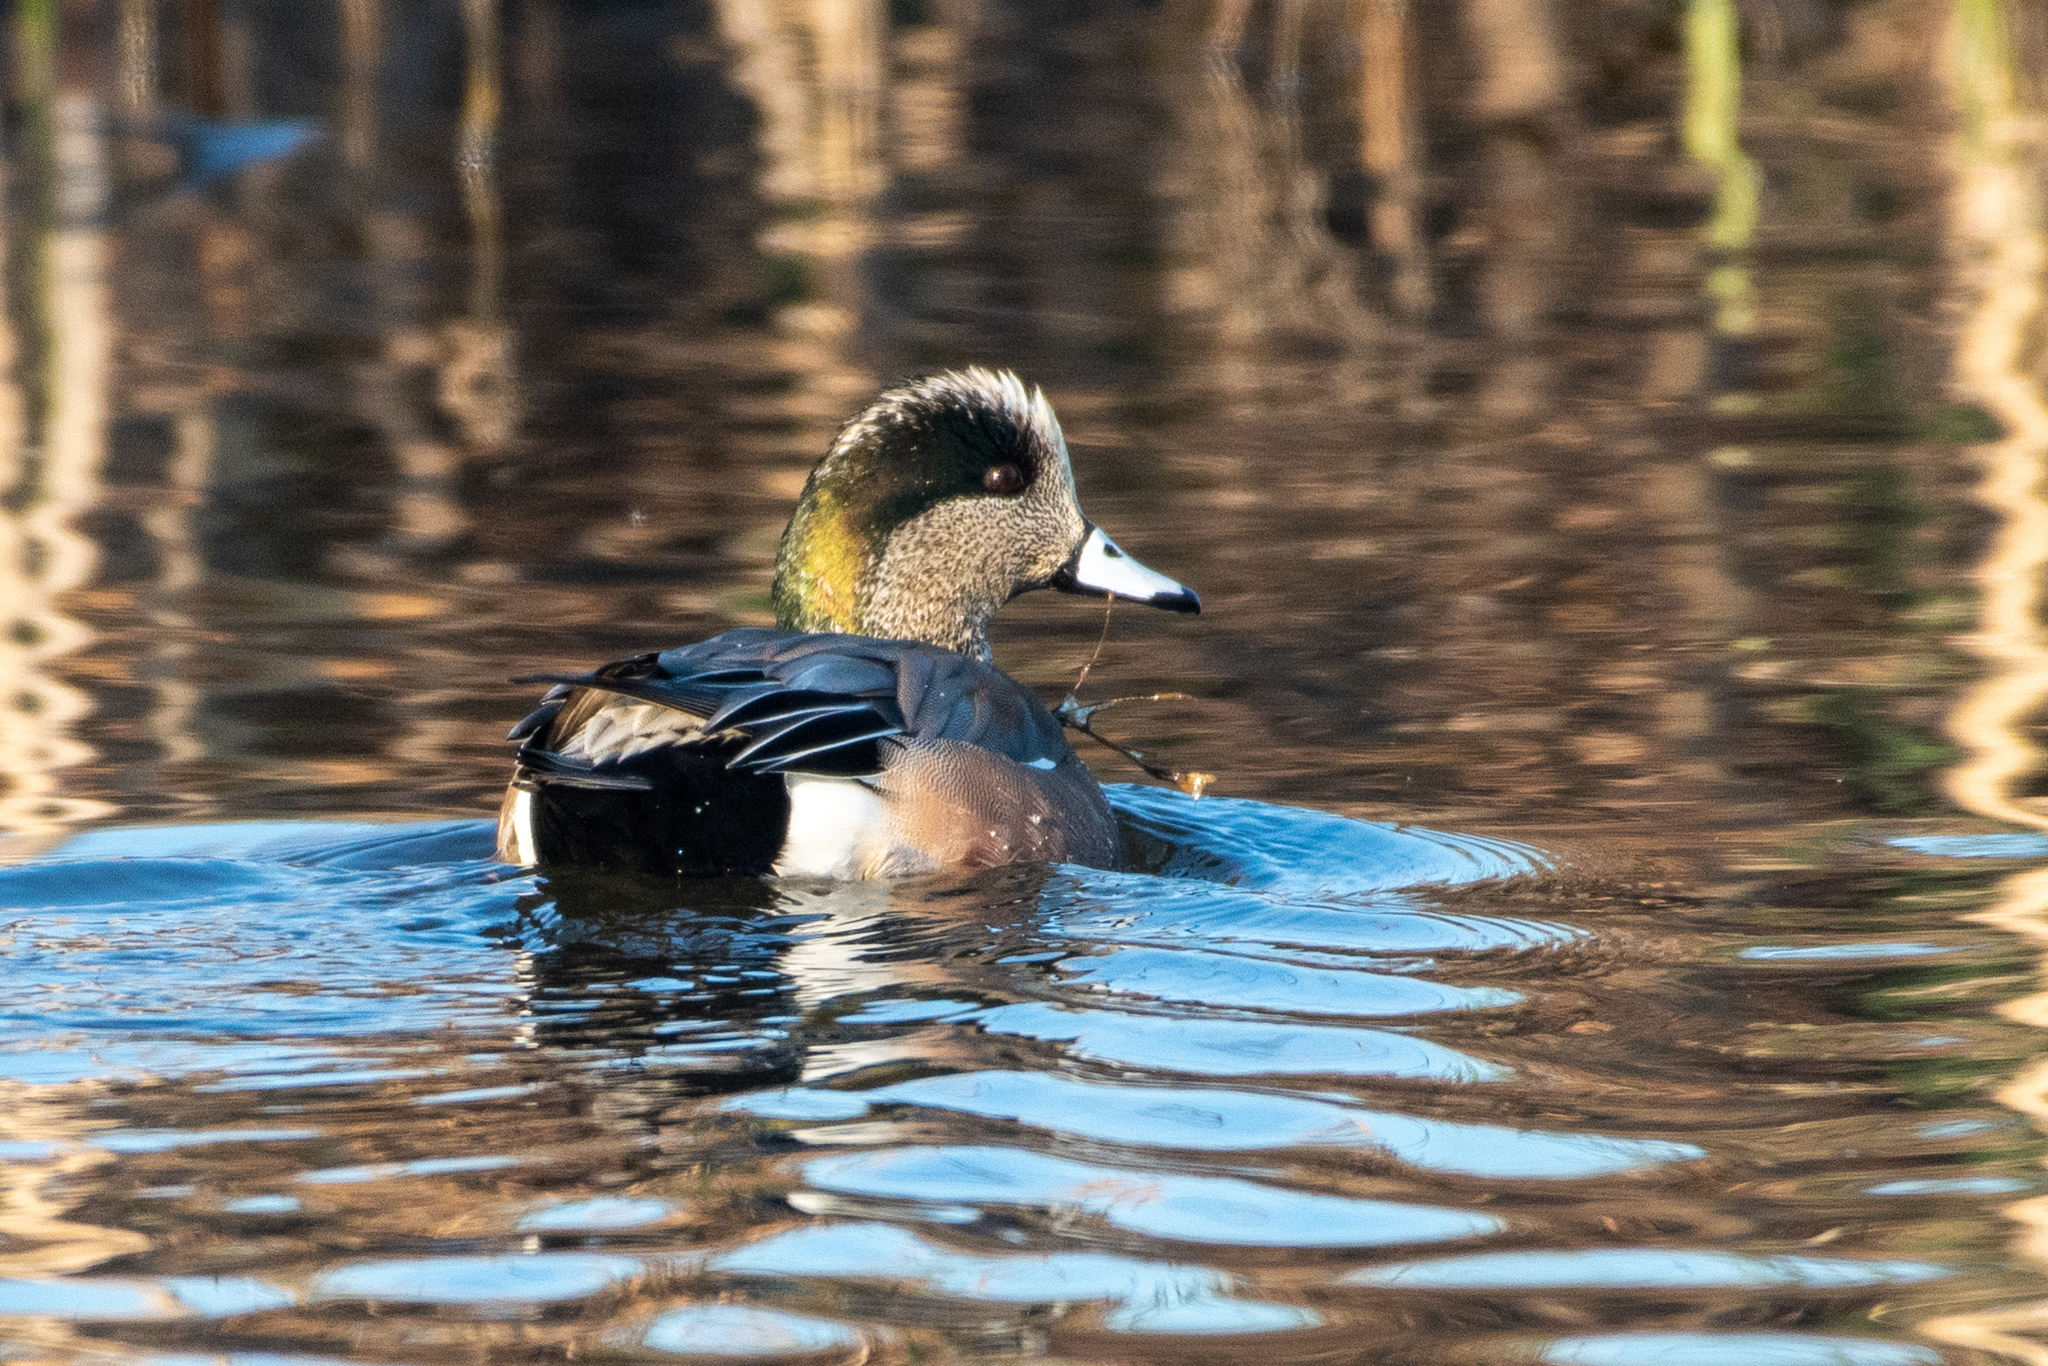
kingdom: Animalia
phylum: Chordata
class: Aves
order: Anseriformes
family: Anatidae
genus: Mareca
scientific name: Mareca americana
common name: American wigeon
